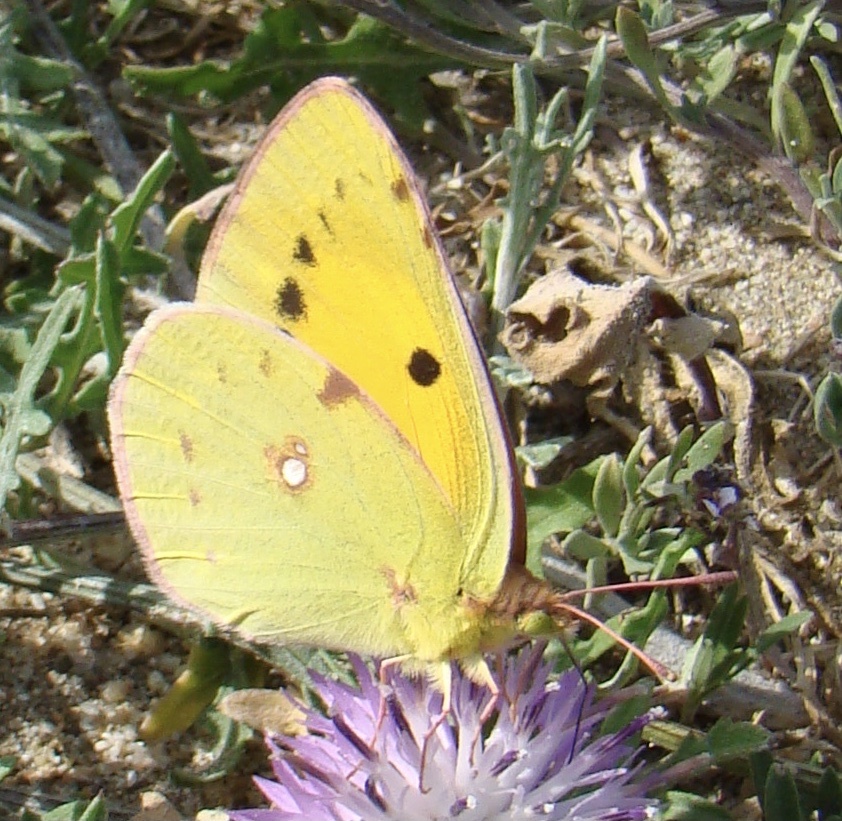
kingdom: Animalia
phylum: Arthropoda
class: Insecta
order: Lepidoptera
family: Pieridae
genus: Colias
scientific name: Colias croceus
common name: Clouded yellow
